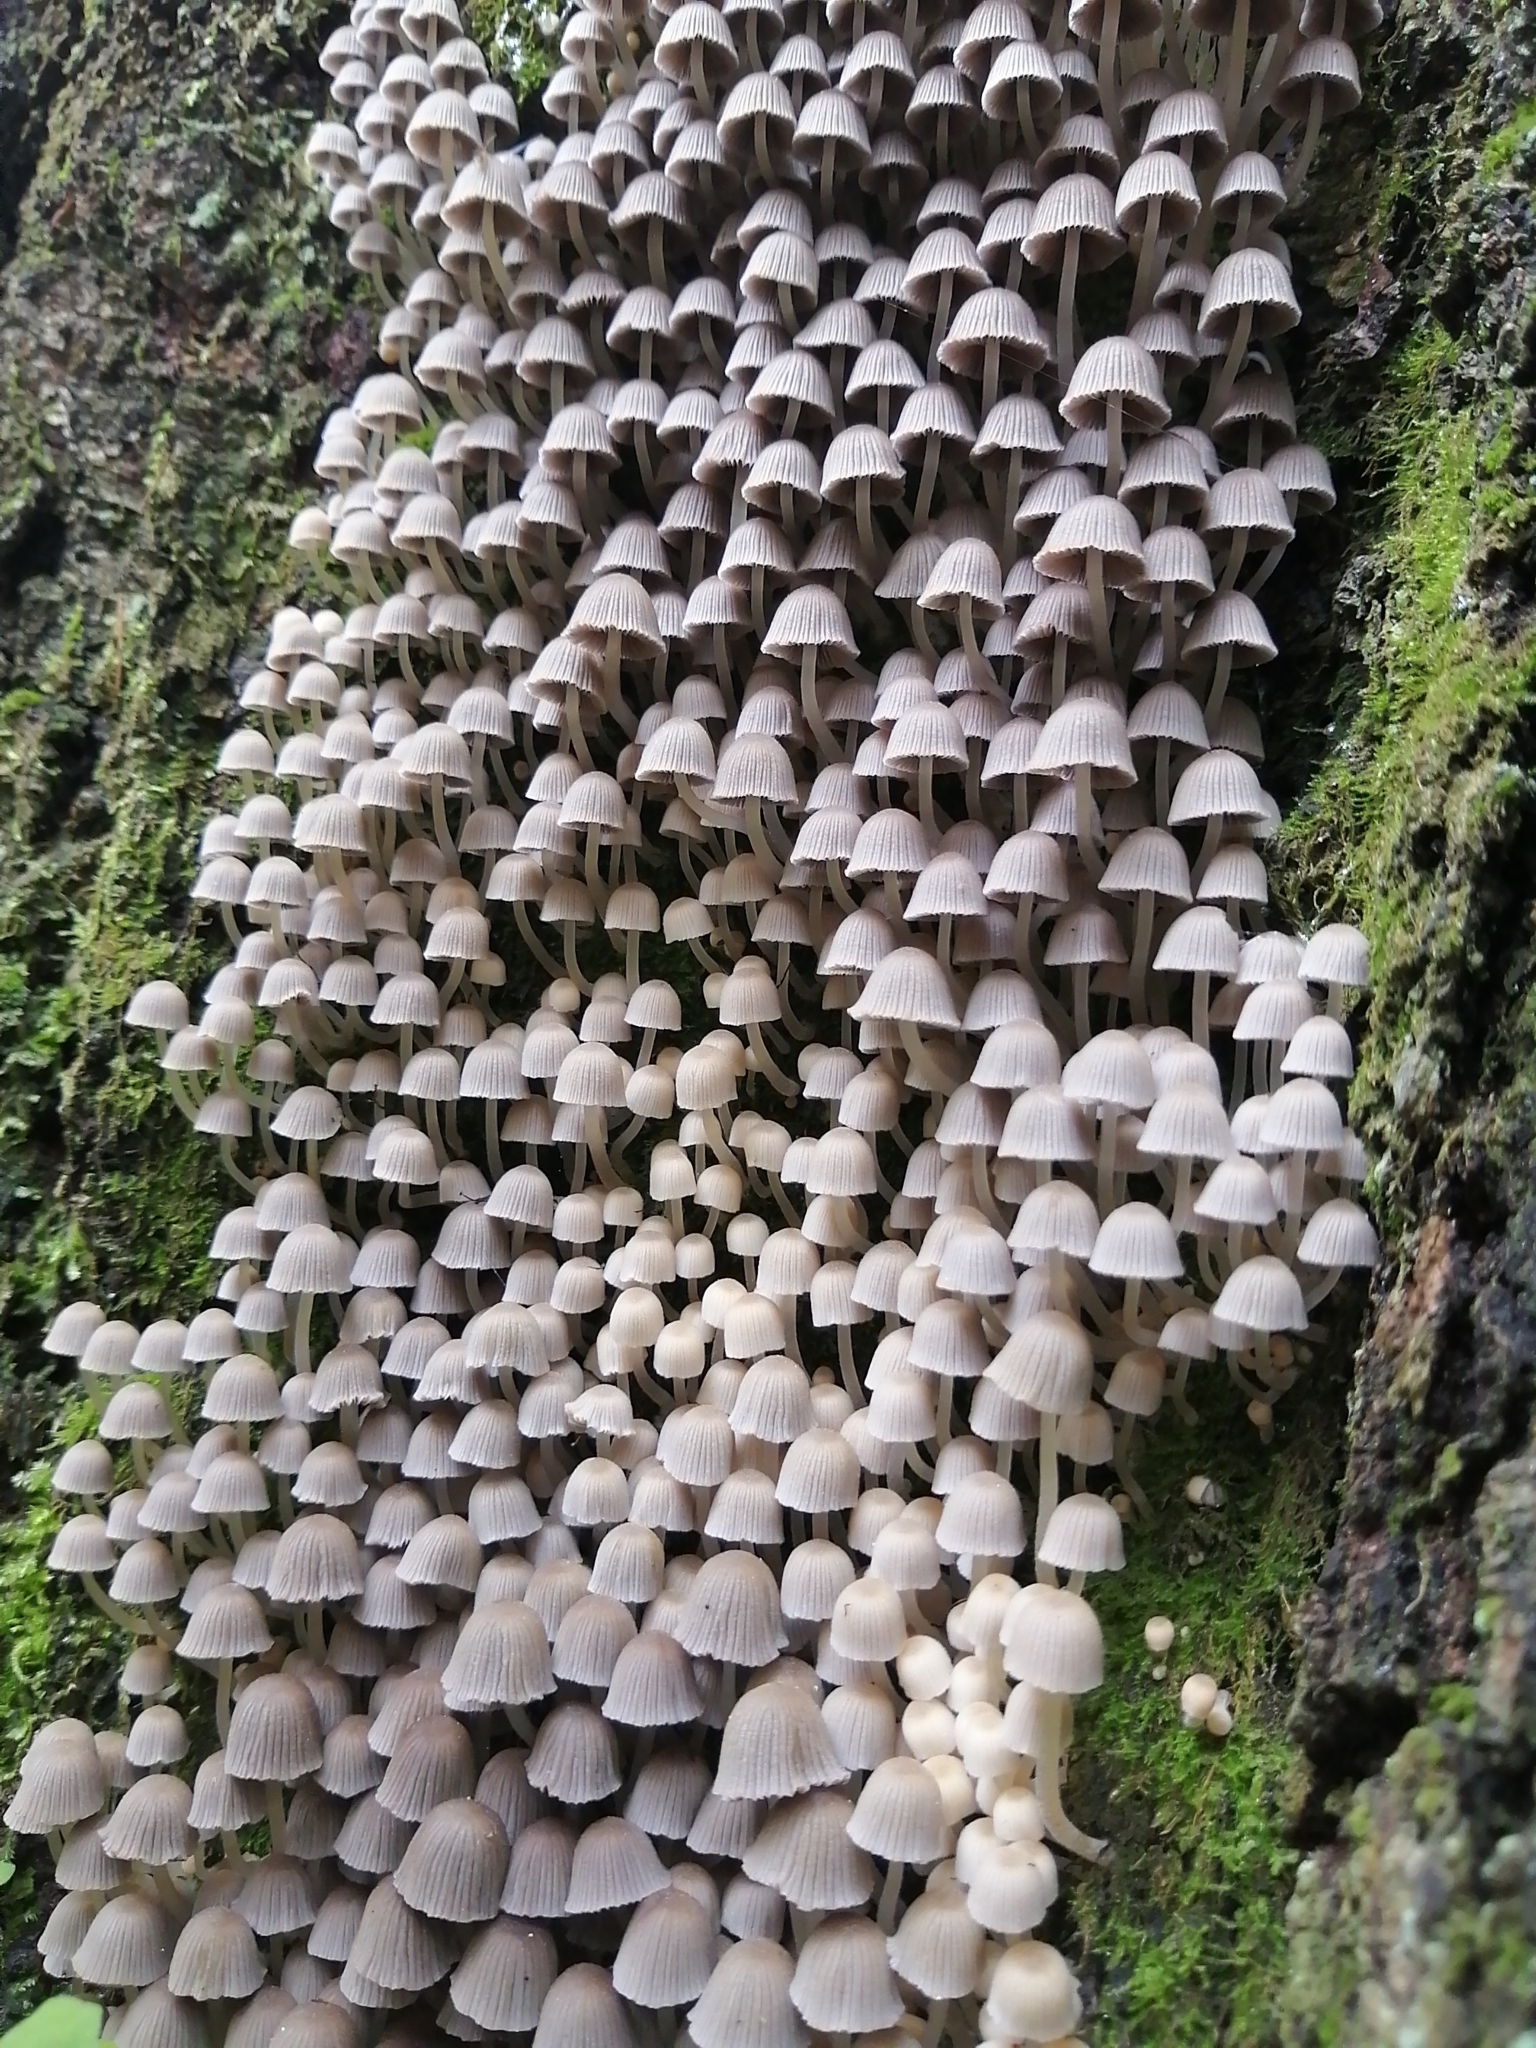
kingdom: Fungi
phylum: Basidiomycota
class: Agaricomycetes
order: Agaricales
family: Psathyrellaceae
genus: Coprinellus
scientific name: Coprinellus disseminatus
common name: Fairies' bonnets
